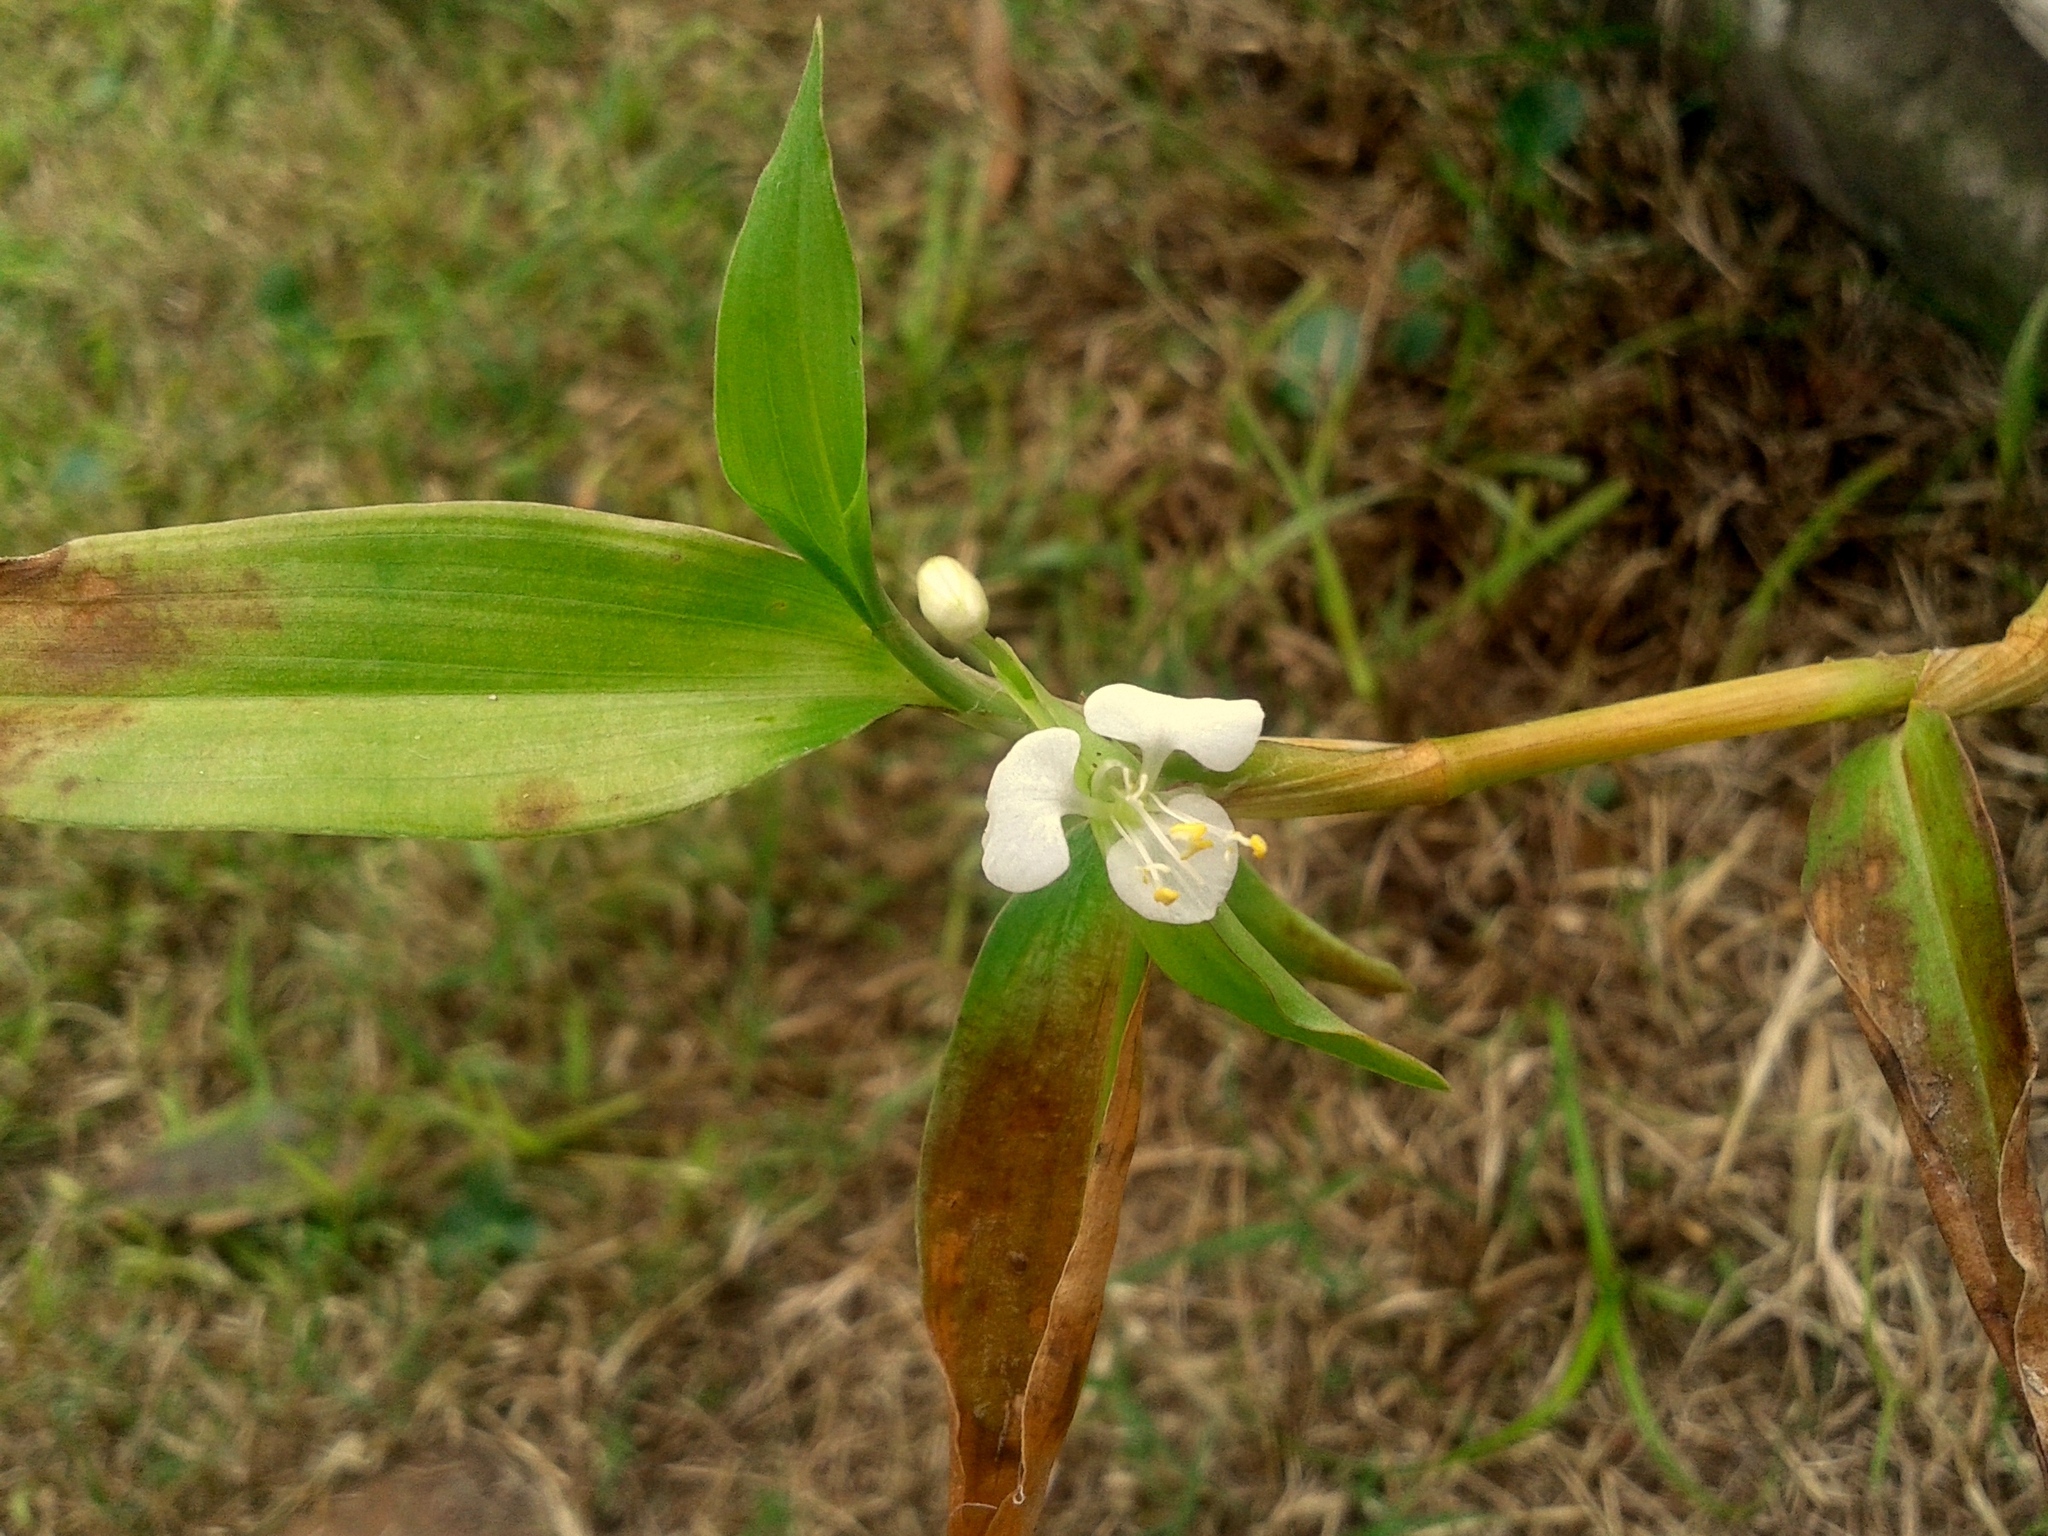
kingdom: Plantae
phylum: Tracheophyta
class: Liliopsida
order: Commelinales
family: Commelinaceae
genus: Commelina
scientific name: Commelina diffusa
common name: Climbing dayflower
